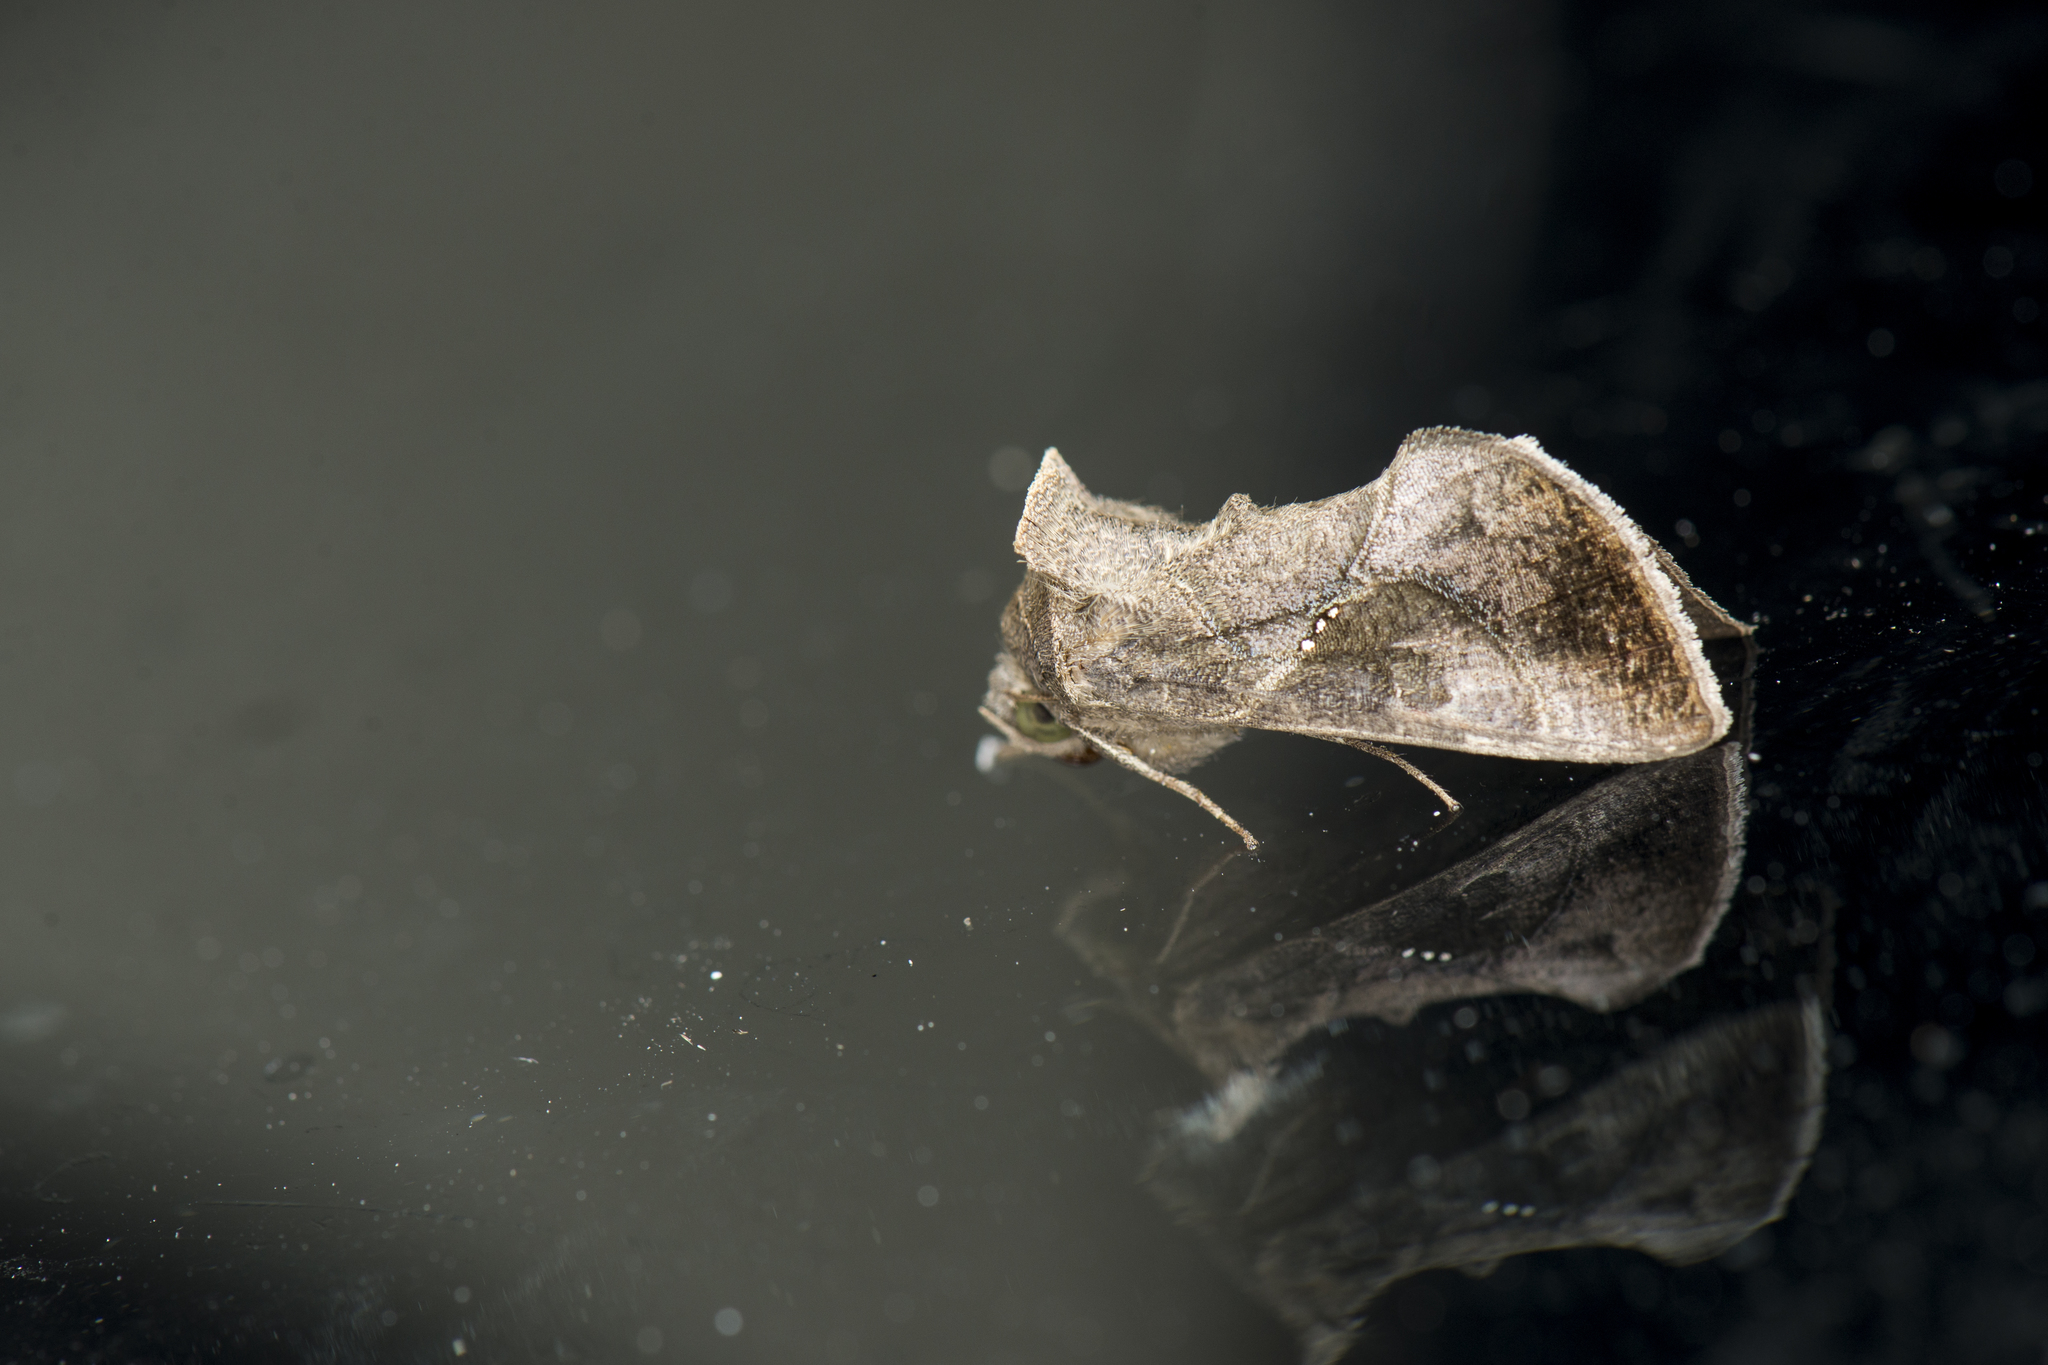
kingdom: Animalia
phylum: Arthropoda
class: Insecta
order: Lepidoptera
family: Noctuidae
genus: Chrysodeixis
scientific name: Chrysodeixis heberachis
